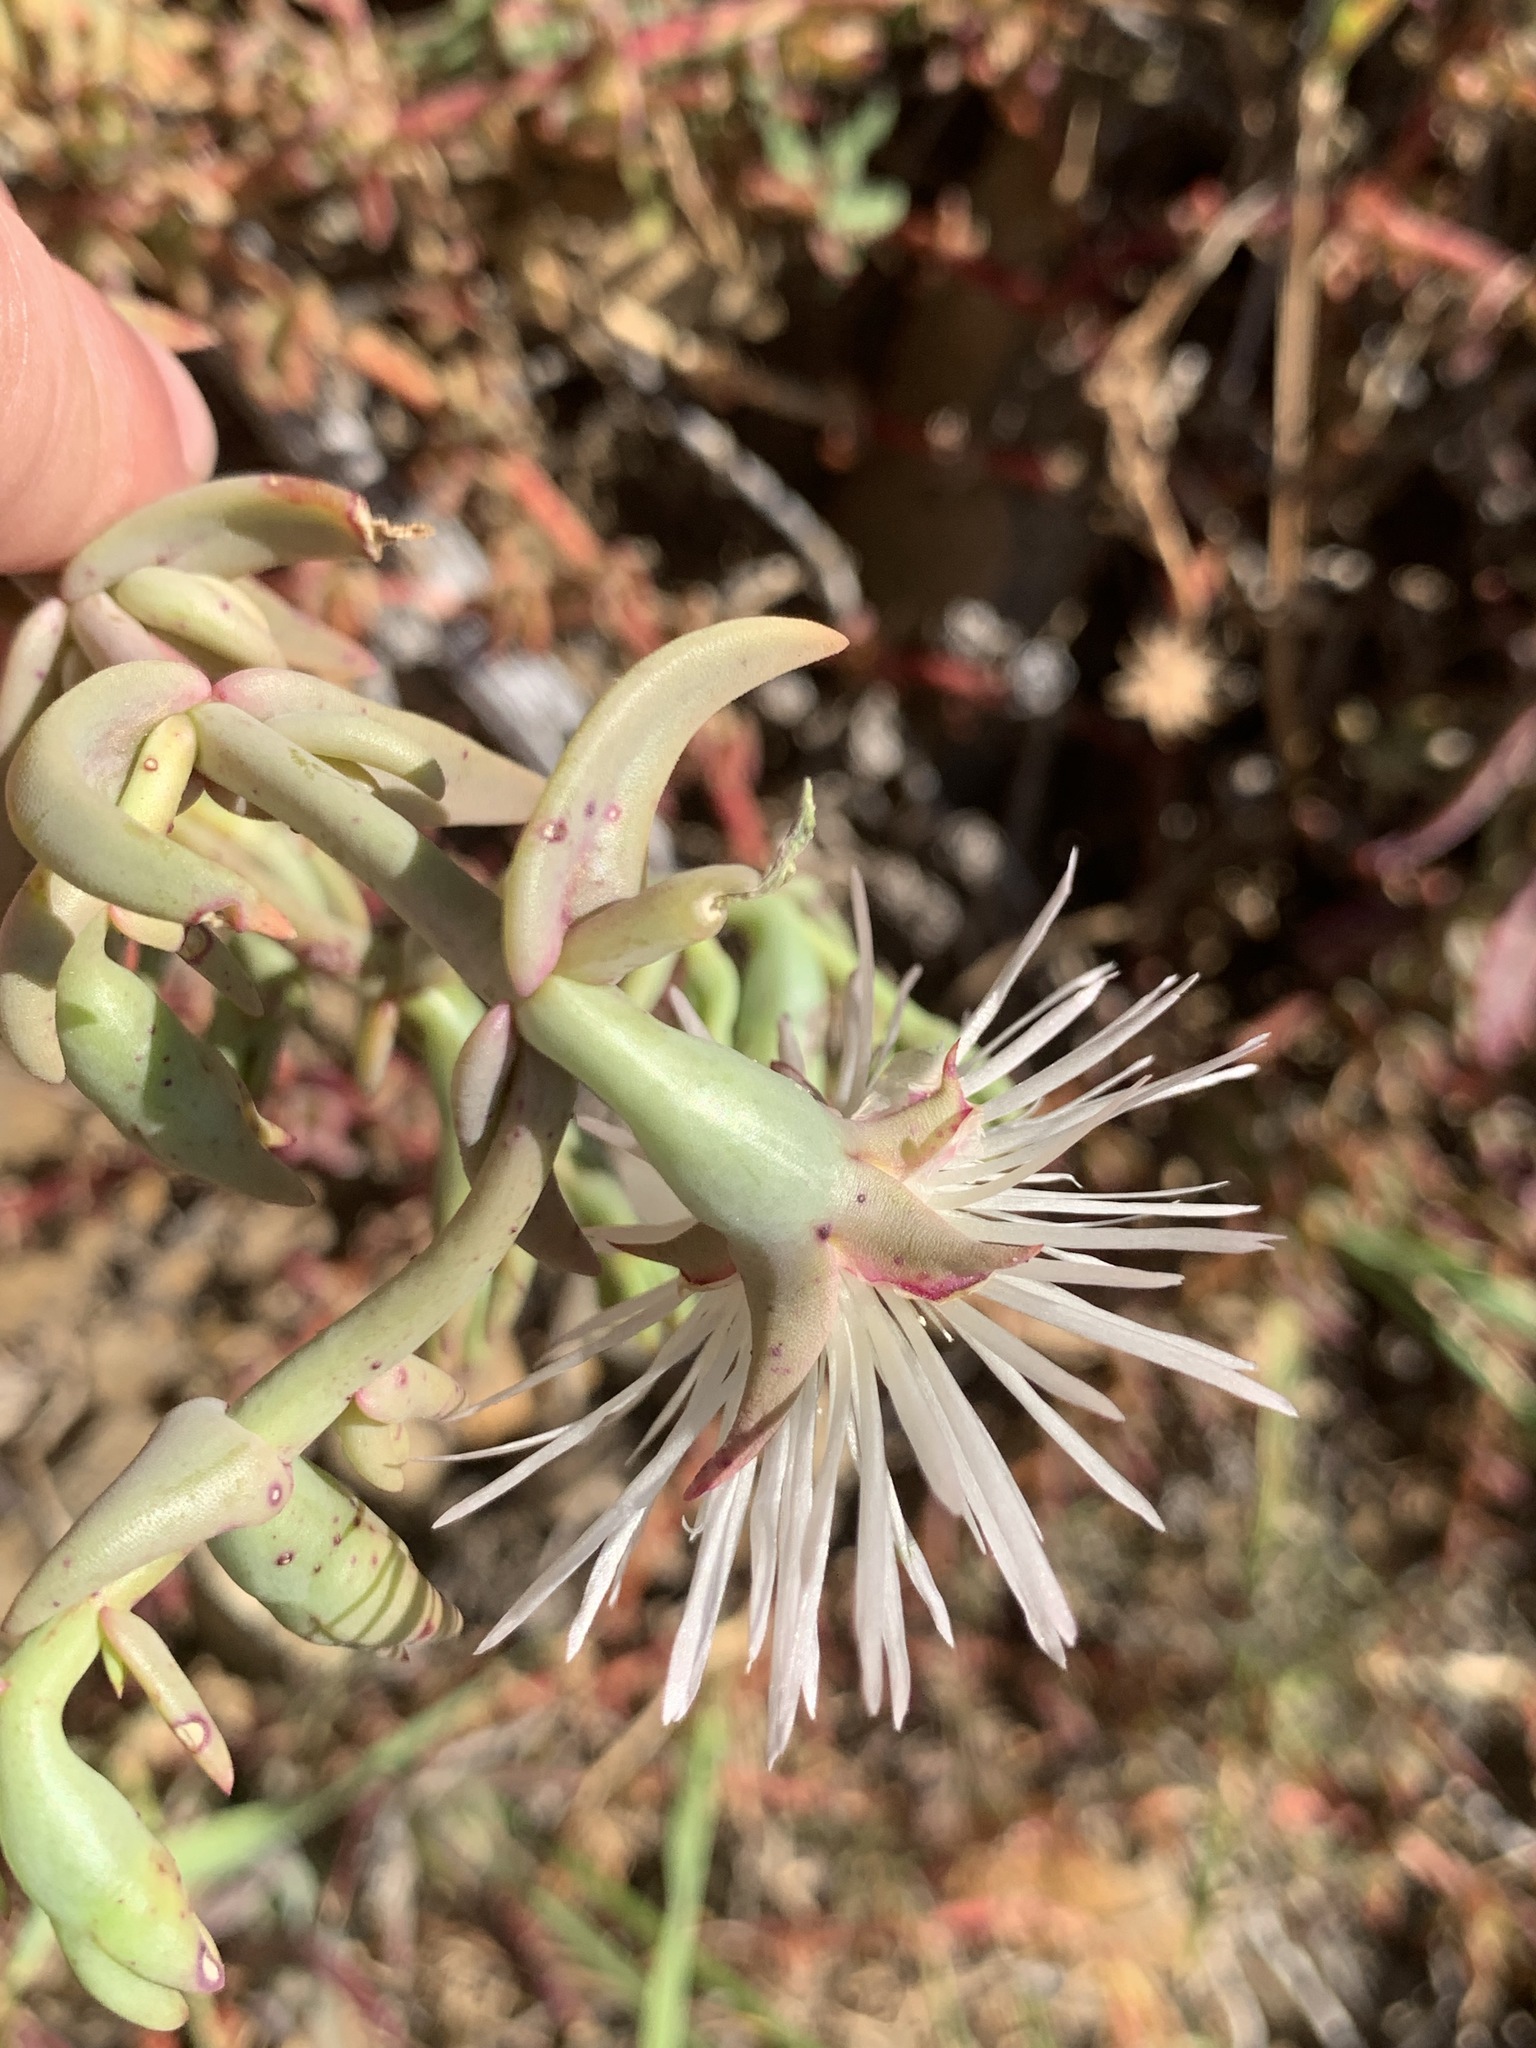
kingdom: Plantae
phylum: Tracheophyta
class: Magnoliopsida
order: Caryophyllales
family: Aizoaceae
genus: Mesembryanthemum
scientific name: Mesembryanthemum pallens
